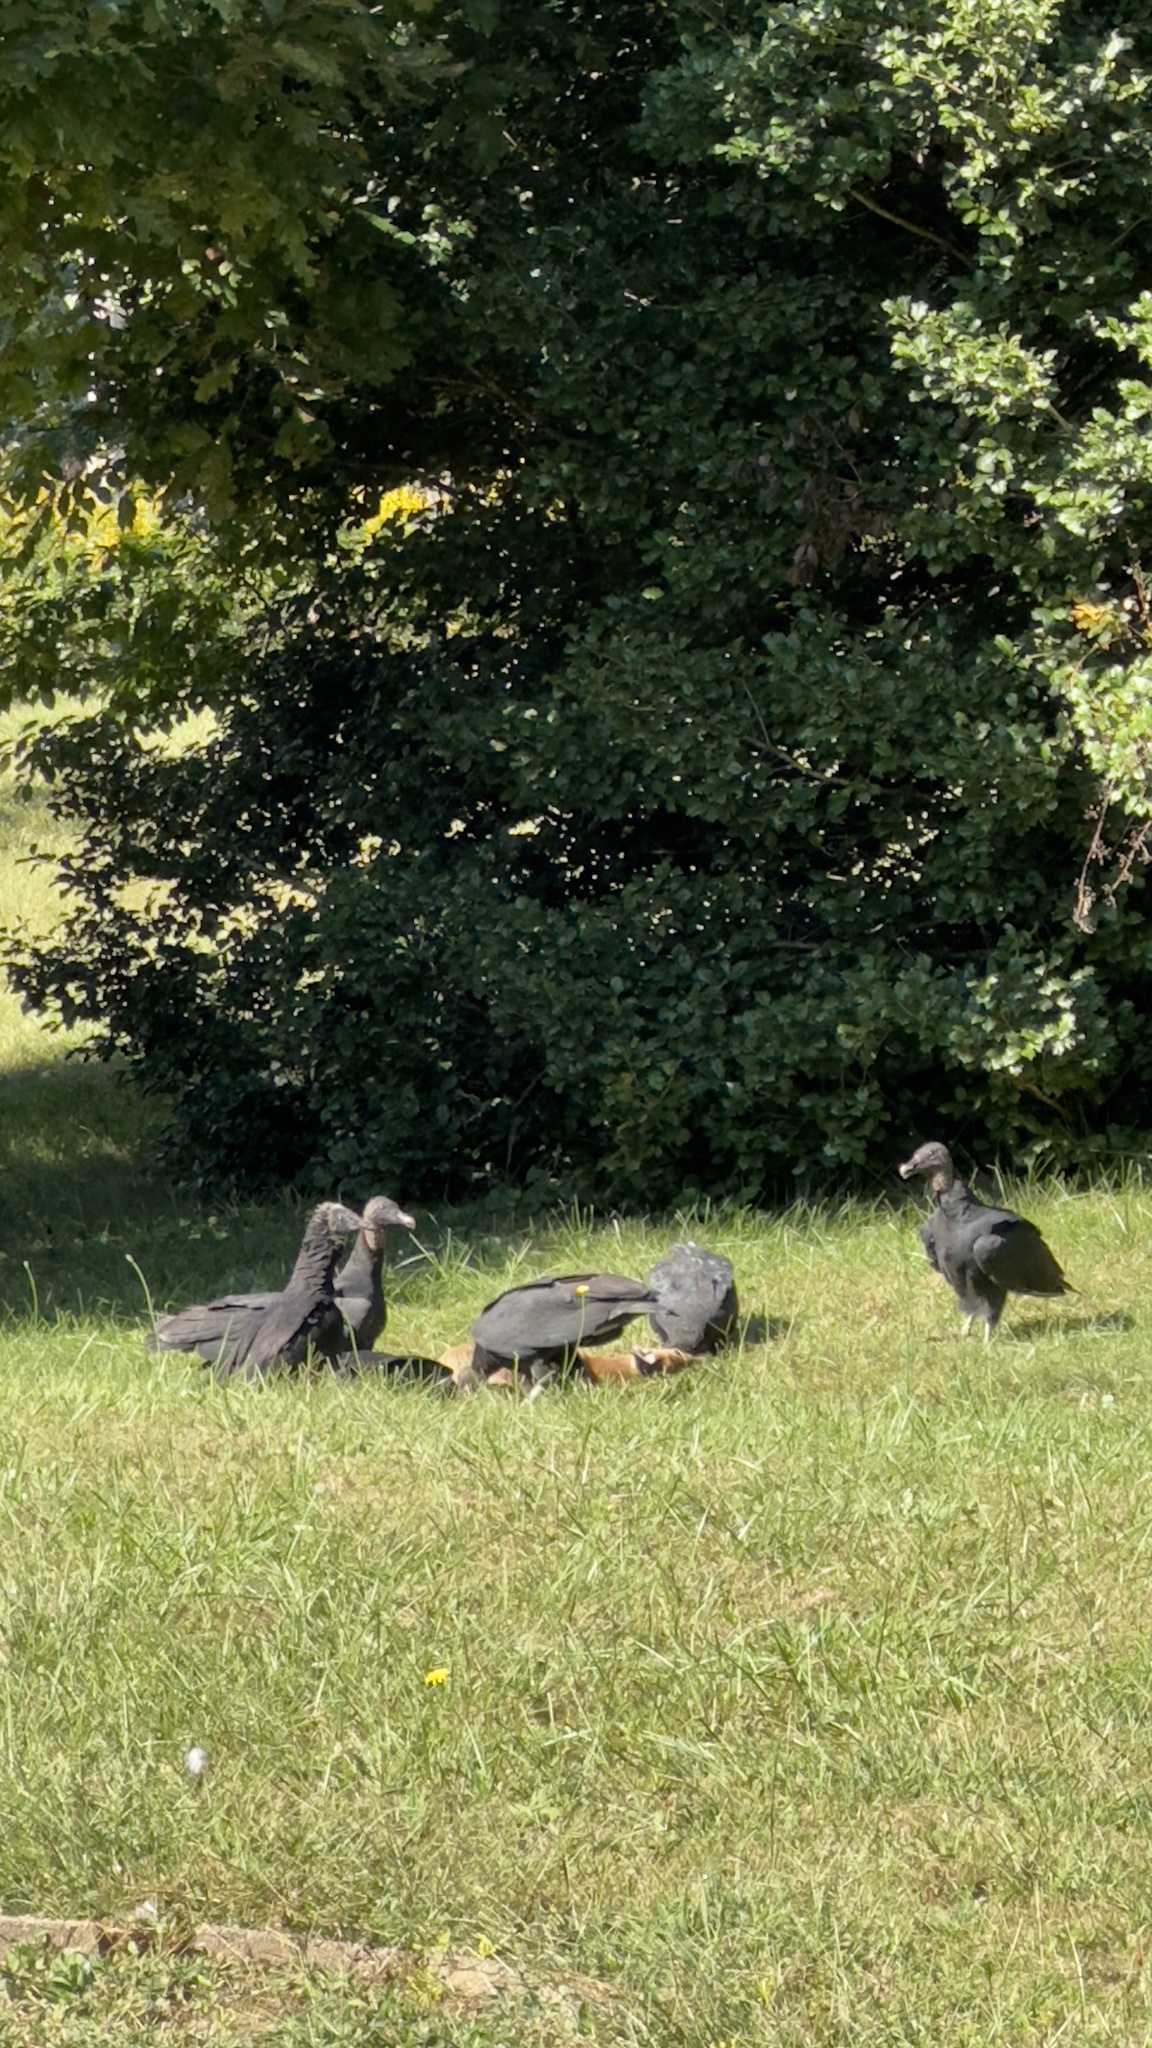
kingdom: Animalia
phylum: Chordata
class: Aves
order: Accipitriformes
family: Cathartidae
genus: Coragyps
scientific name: Coragyps atratus
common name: Black vulture
